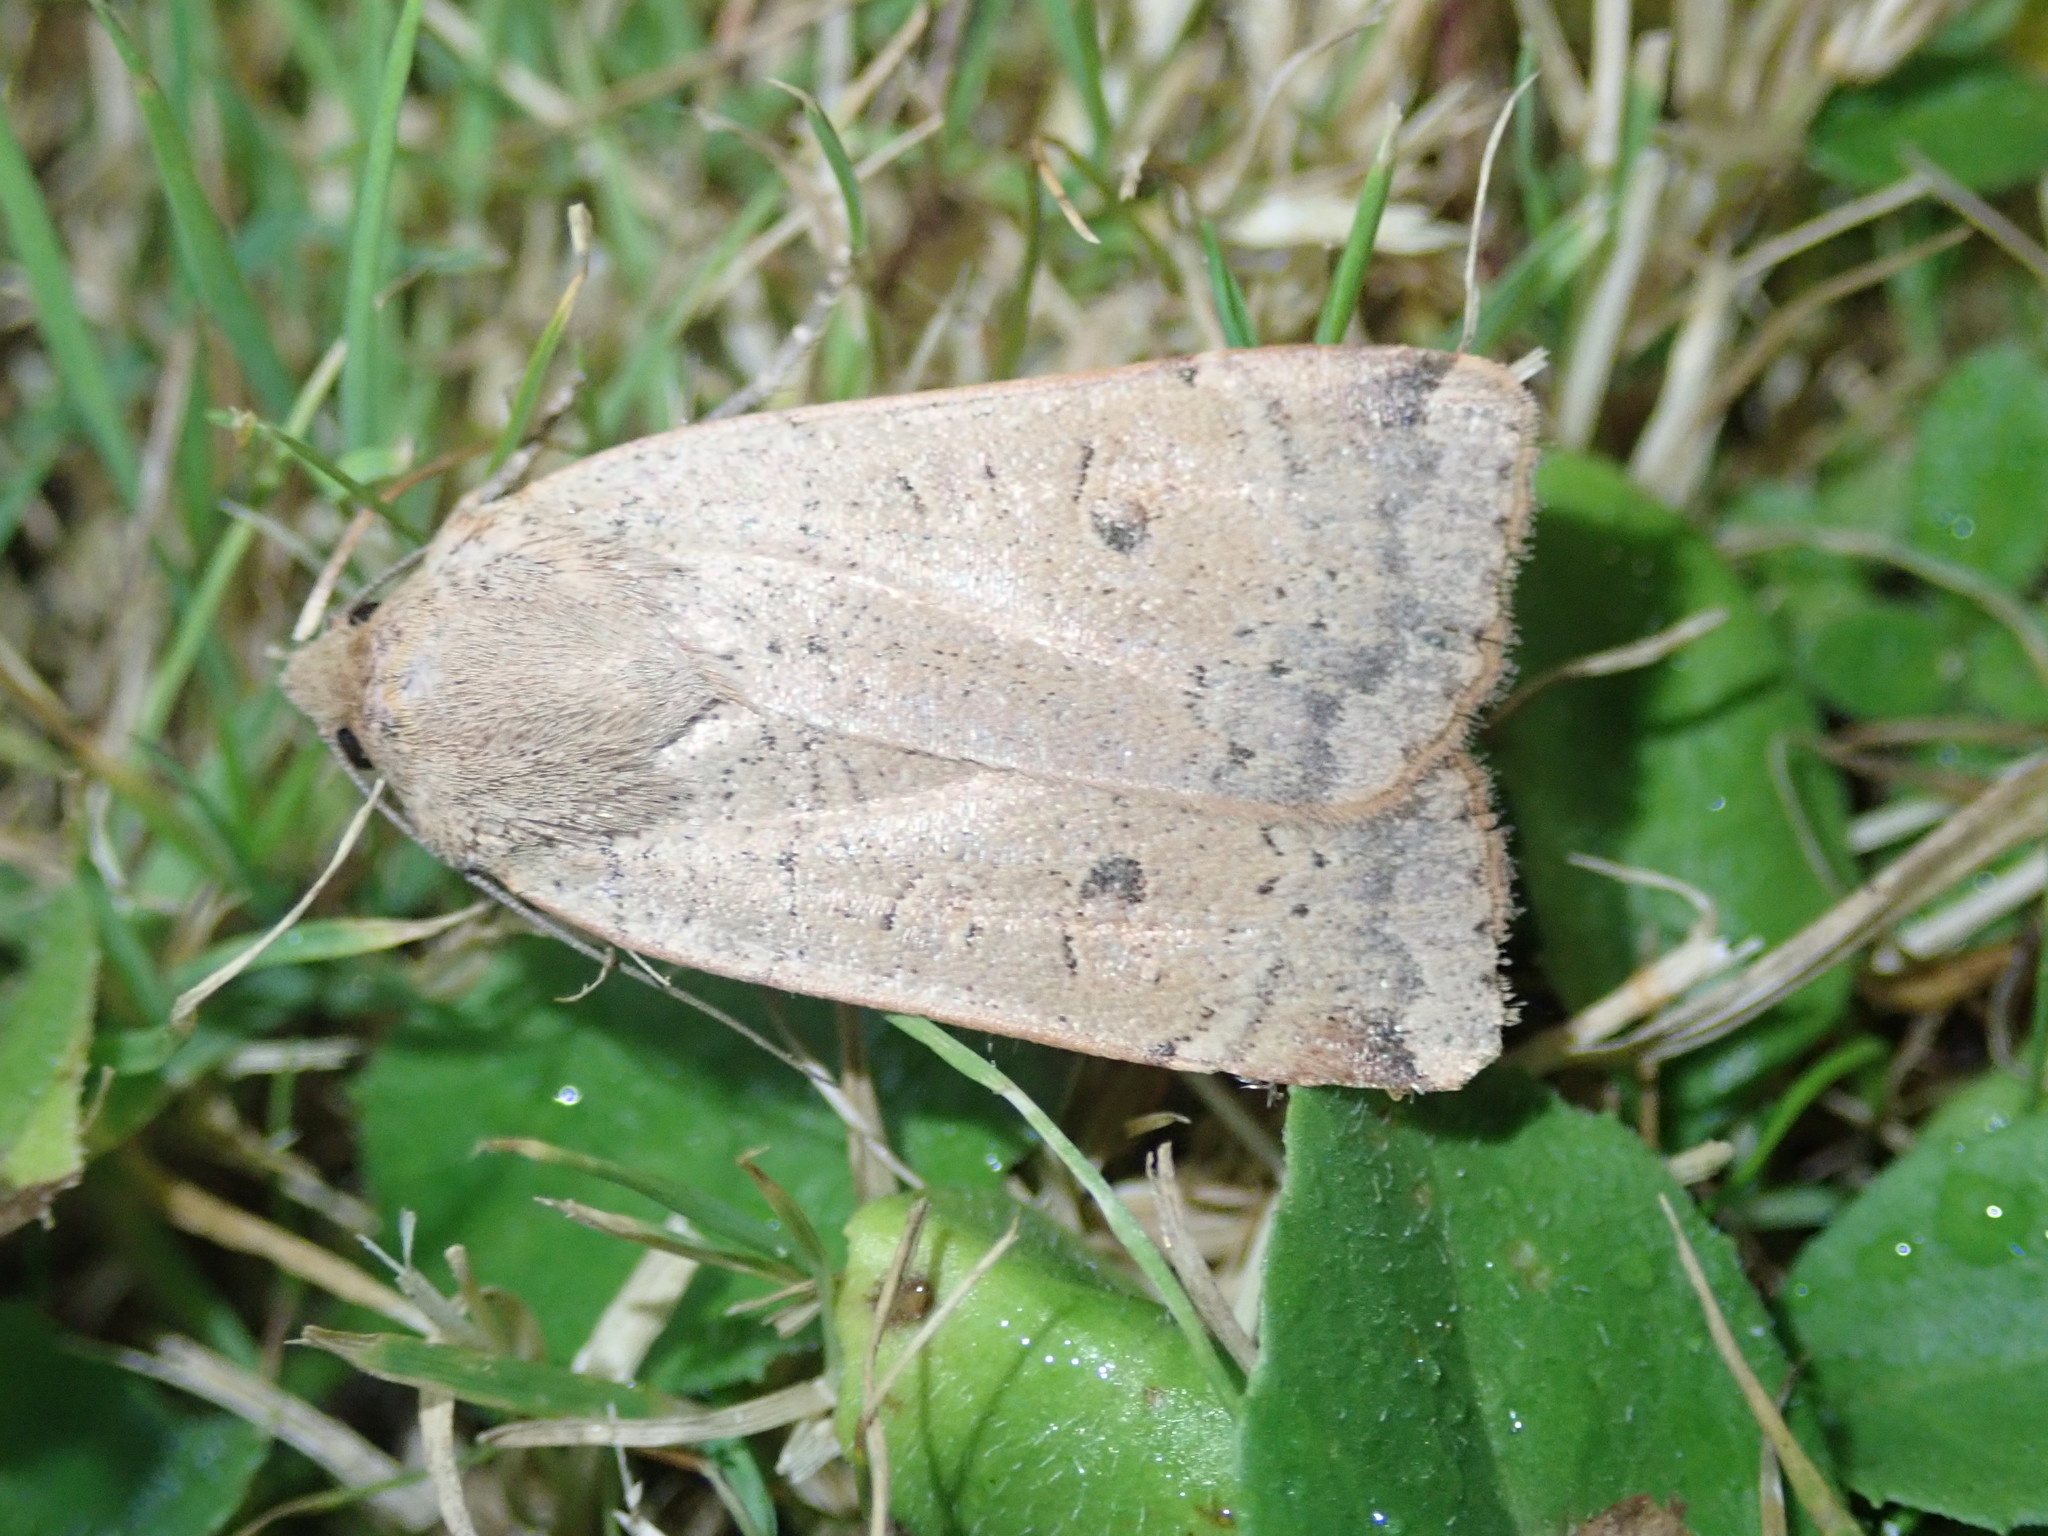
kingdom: Animalia
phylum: Arthropoda
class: Insecta
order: Lepidoptera
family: Noctuidae
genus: Noctua
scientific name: Noctua comes
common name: Lesser yellow underwing
